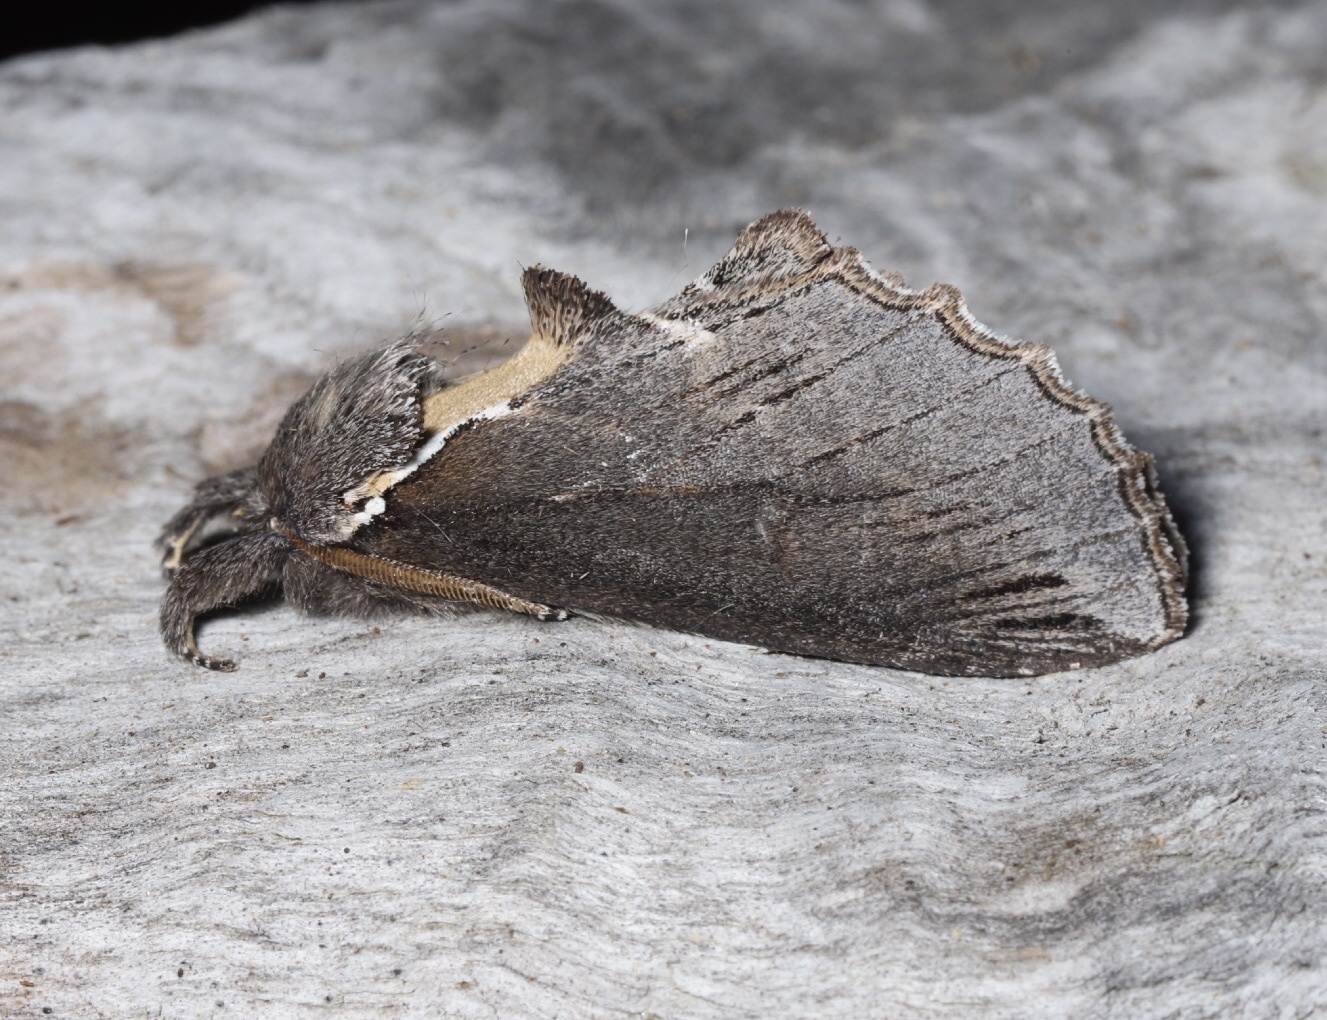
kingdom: Animalia
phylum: Arthropoda
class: Insecta
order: Lepidoptera
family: Notodontidae
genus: Pheosidea
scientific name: Pheosidea elegans
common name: Elegant prominent
